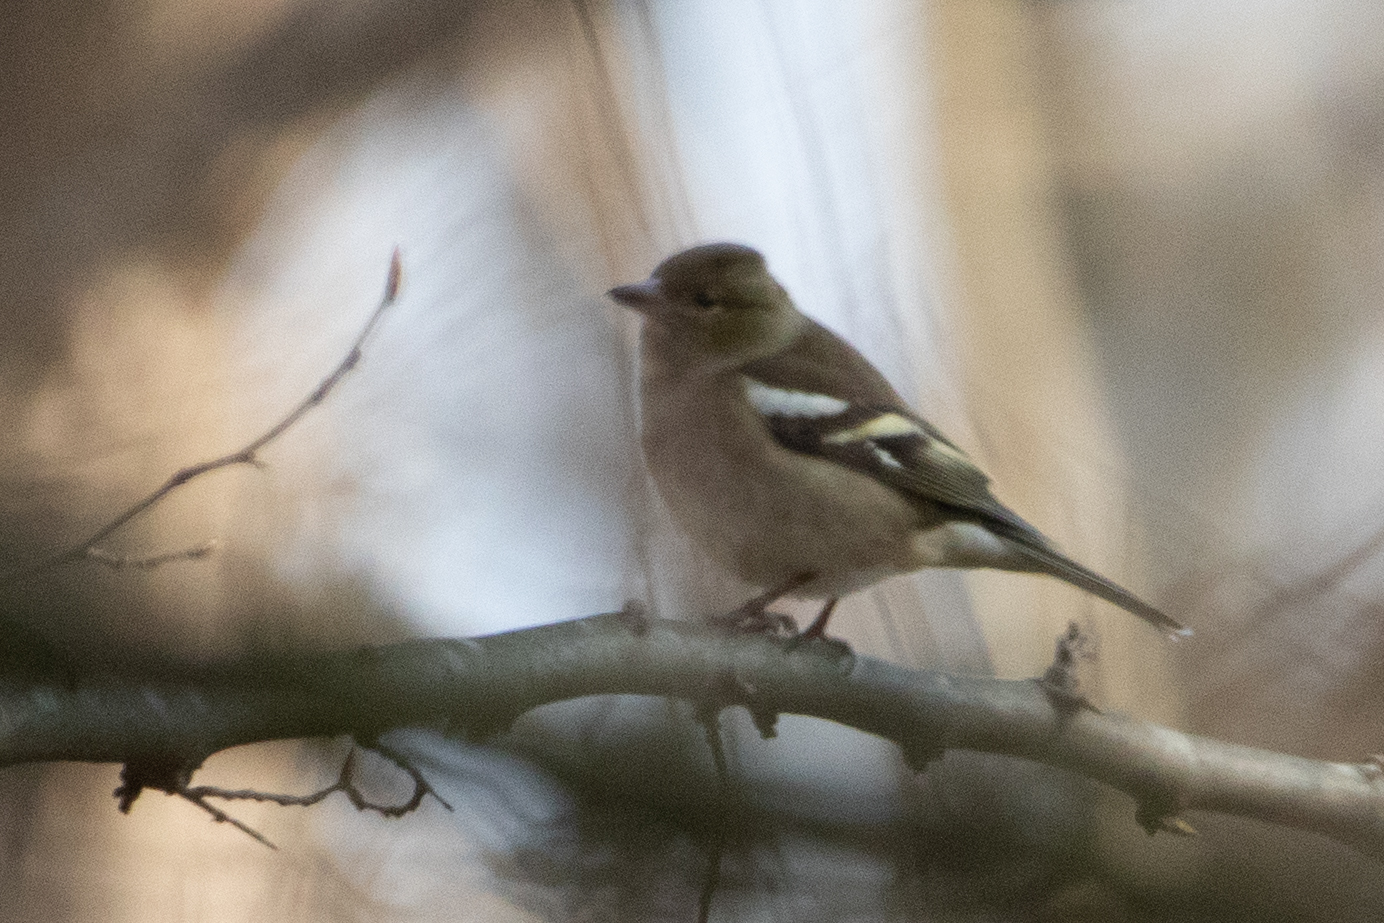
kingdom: Animalia
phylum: Chordata
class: Aves
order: Passeriformes
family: Fringillidae
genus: Fringilla
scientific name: Fringilla coelebs
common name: Common chaffinch
